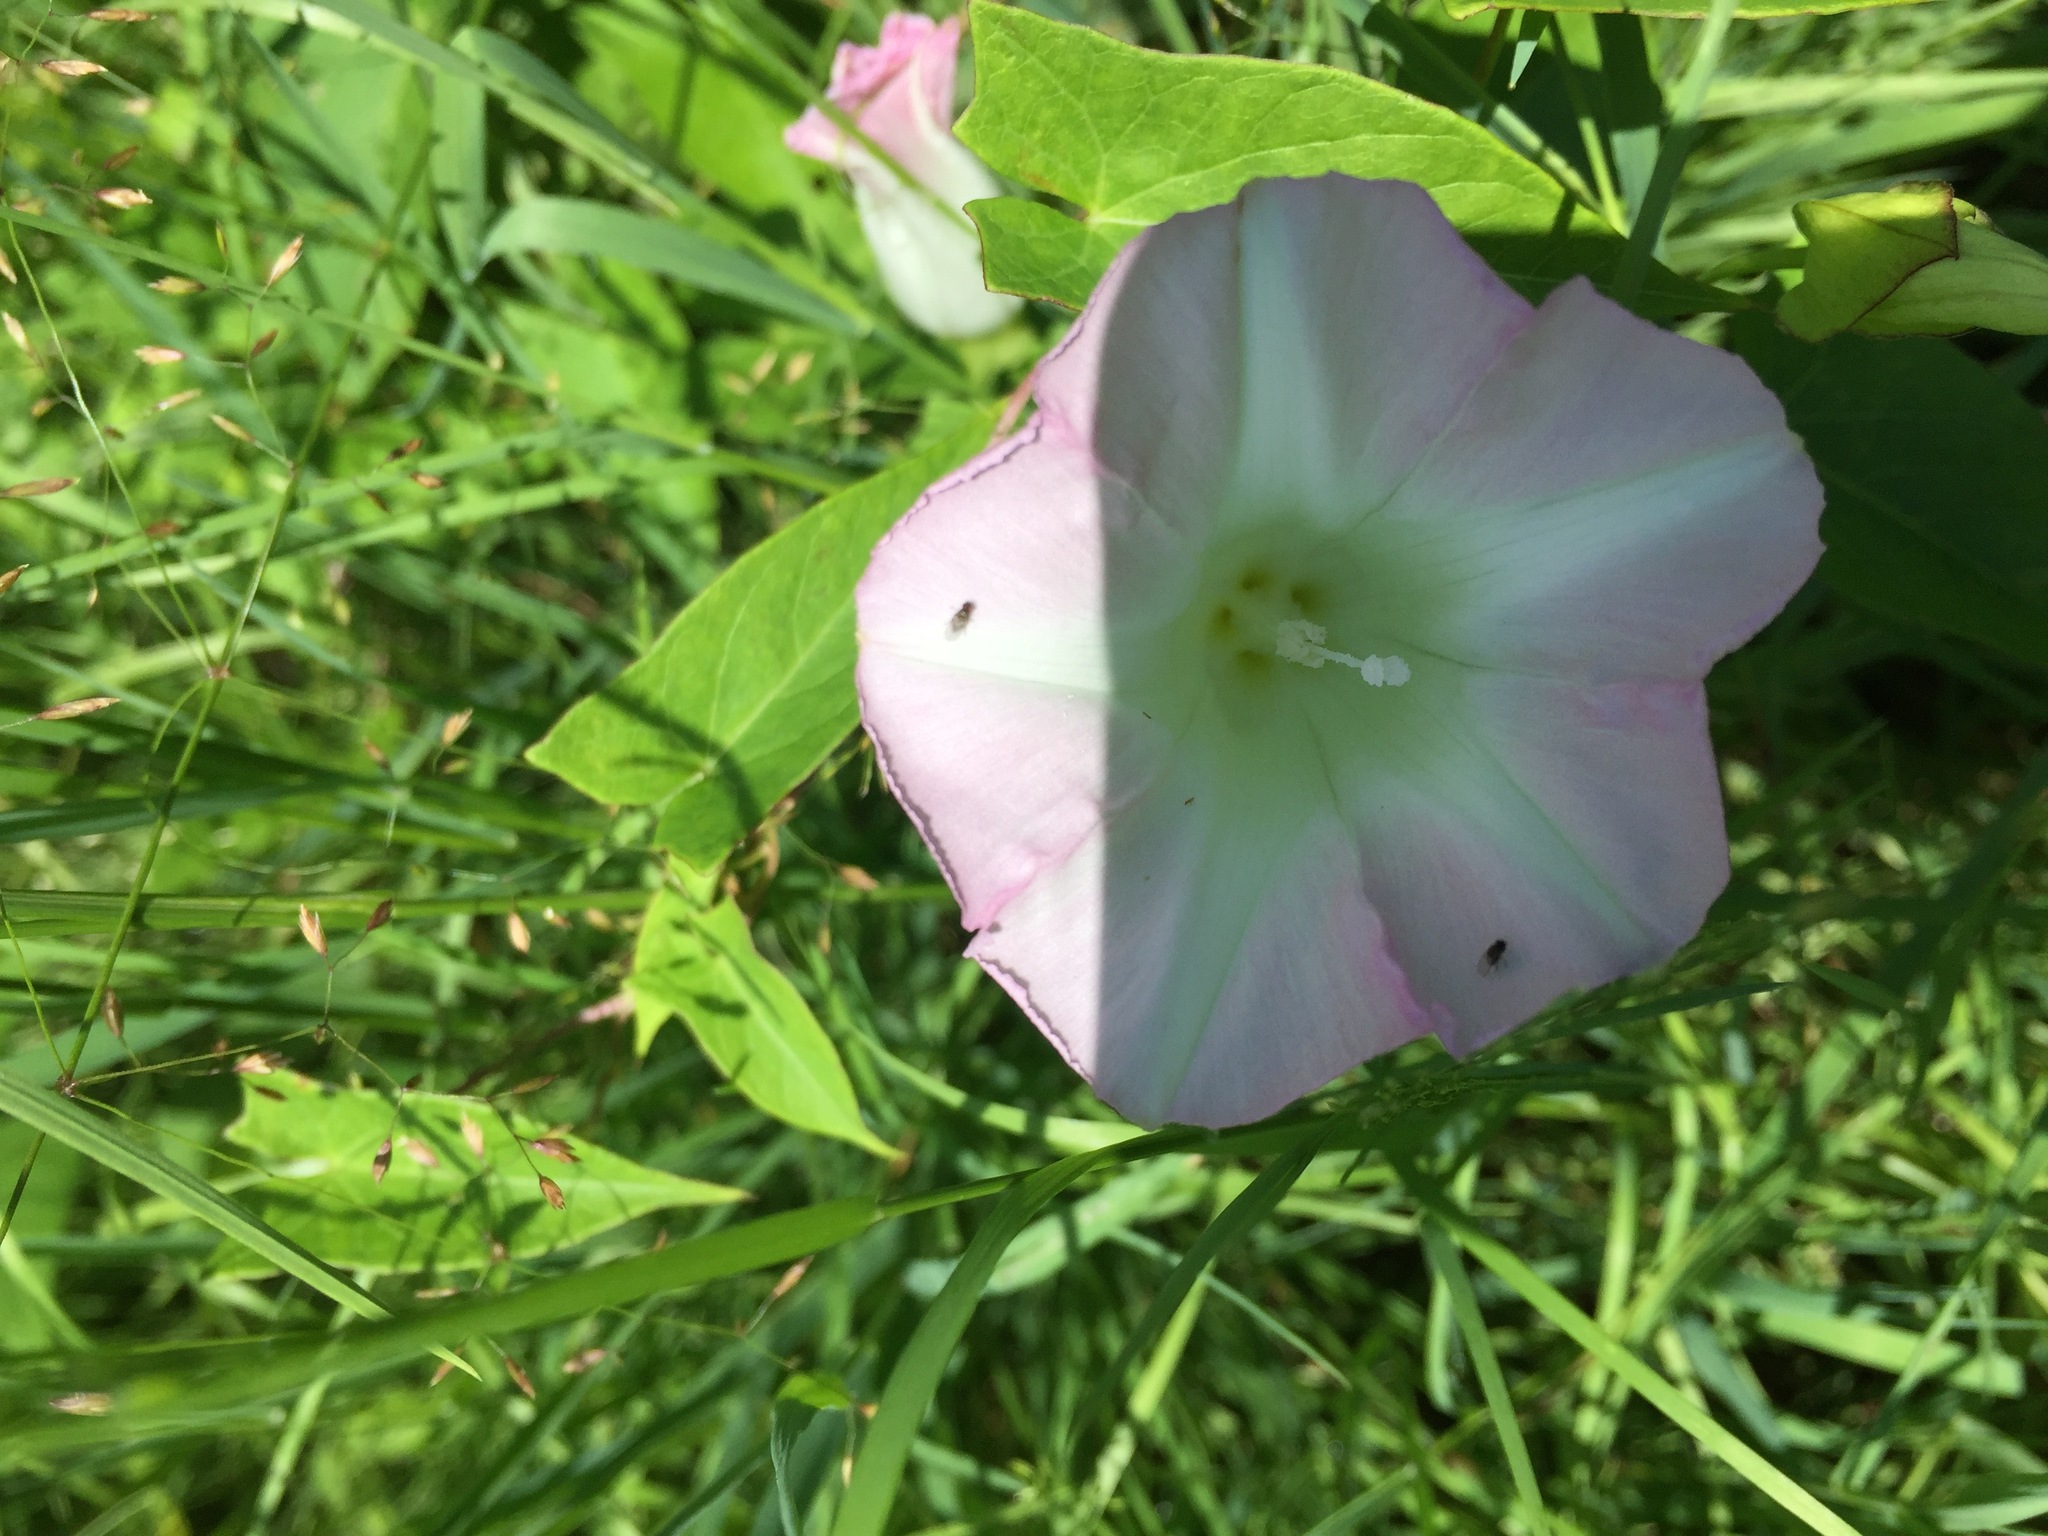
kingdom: Plantae
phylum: Tracheophyta
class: Magnoliopsida
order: Solanales
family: Convolvulaceae
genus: Calystegia
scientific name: Calystegia sepium
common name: Hedge bindweed
